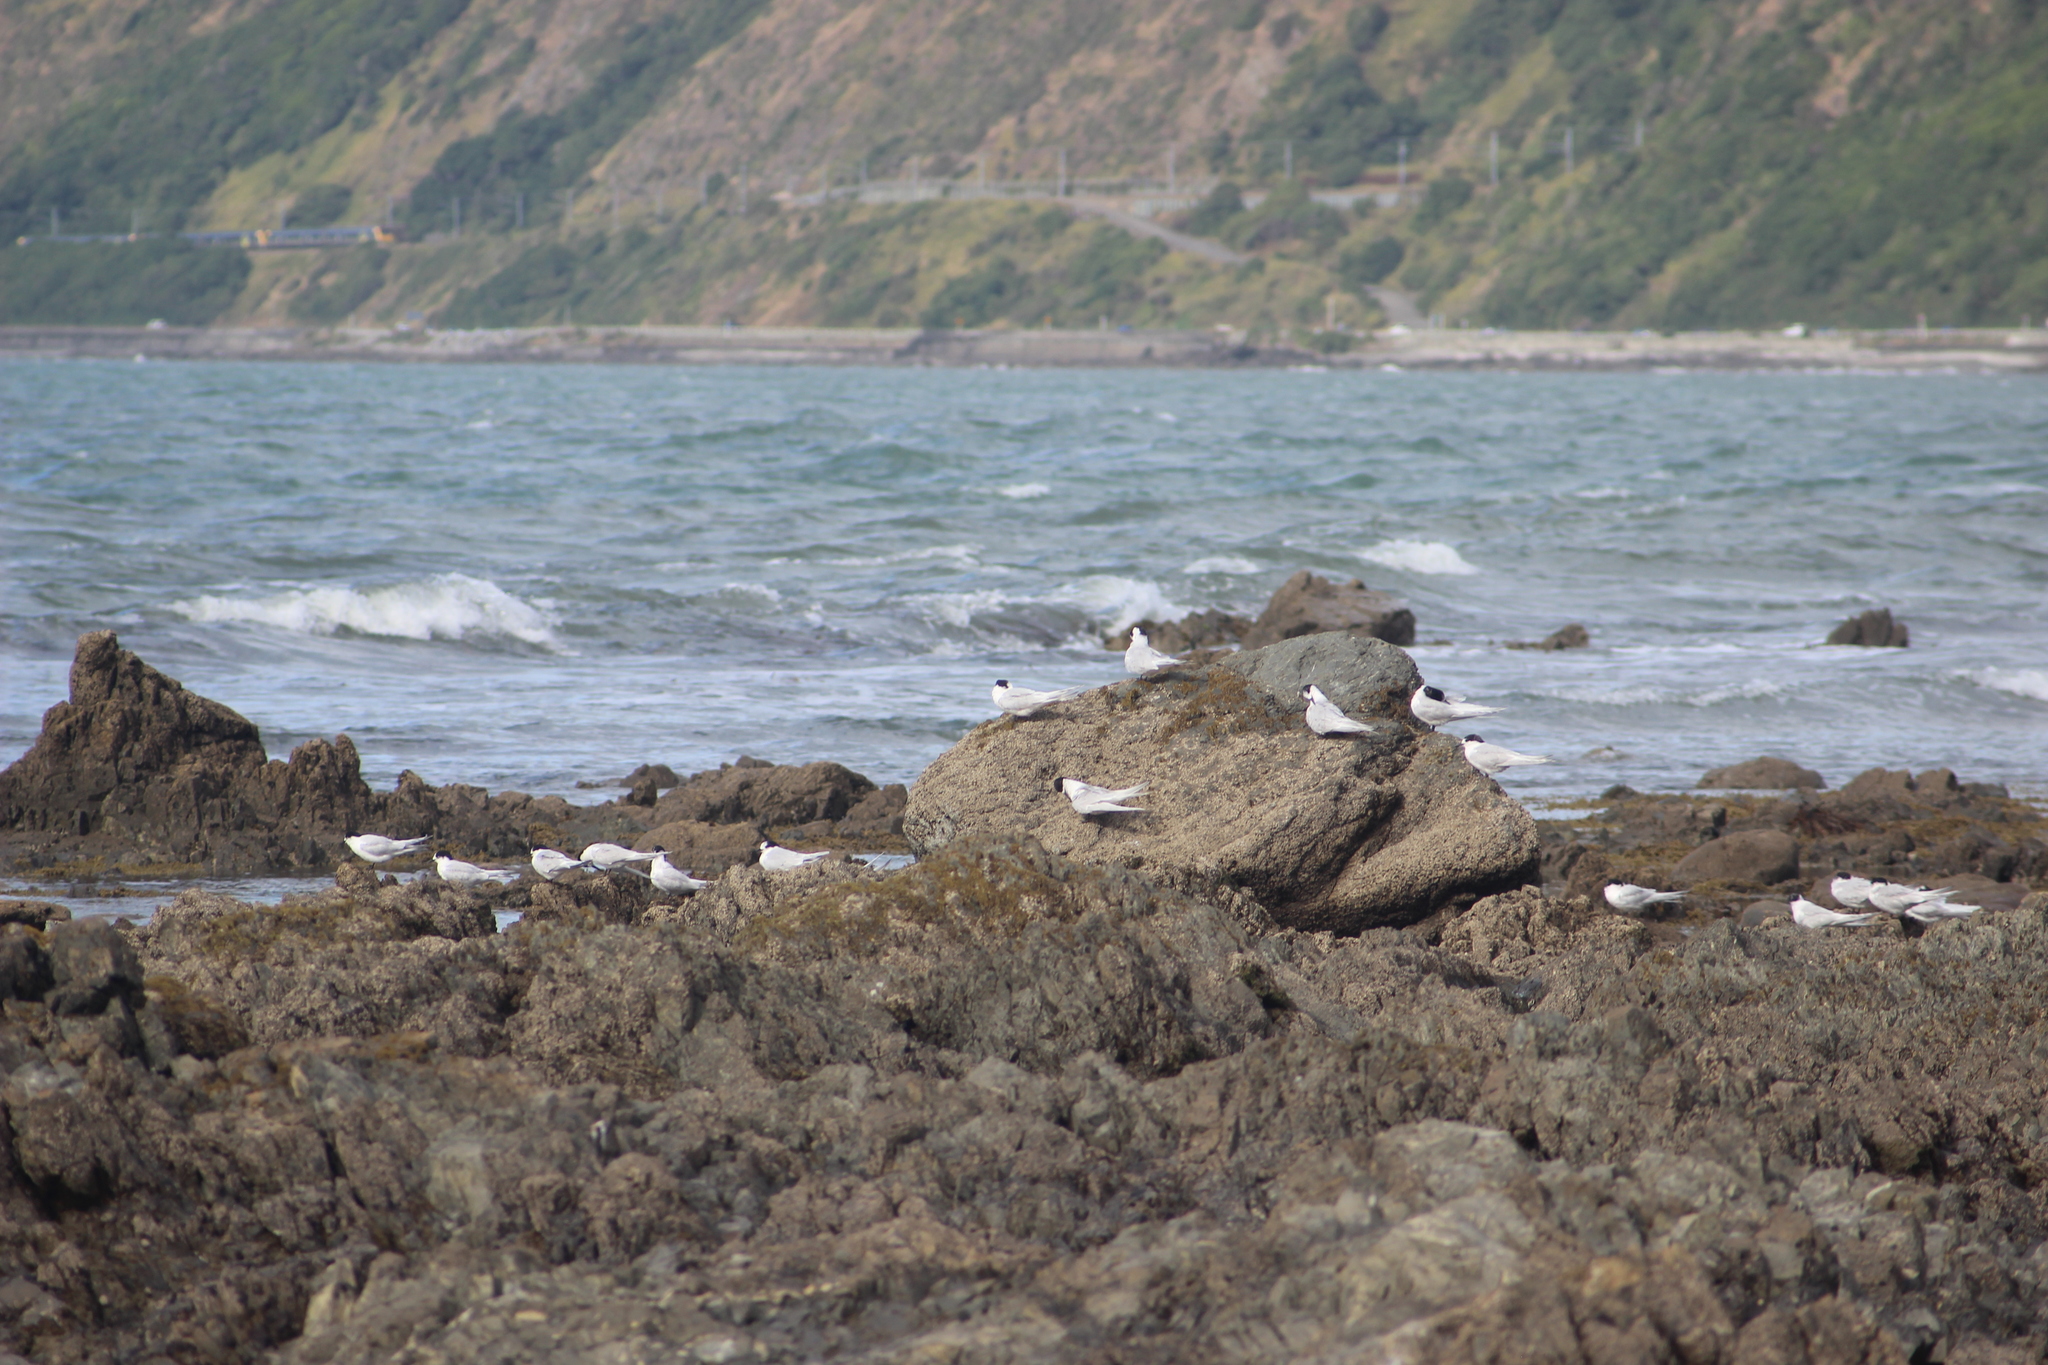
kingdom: Animalia
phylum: Chordata
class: Aves
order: Charadriiformes
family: Laridae
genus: Sterna
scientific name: Sterna striata
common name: White-fronted tern
